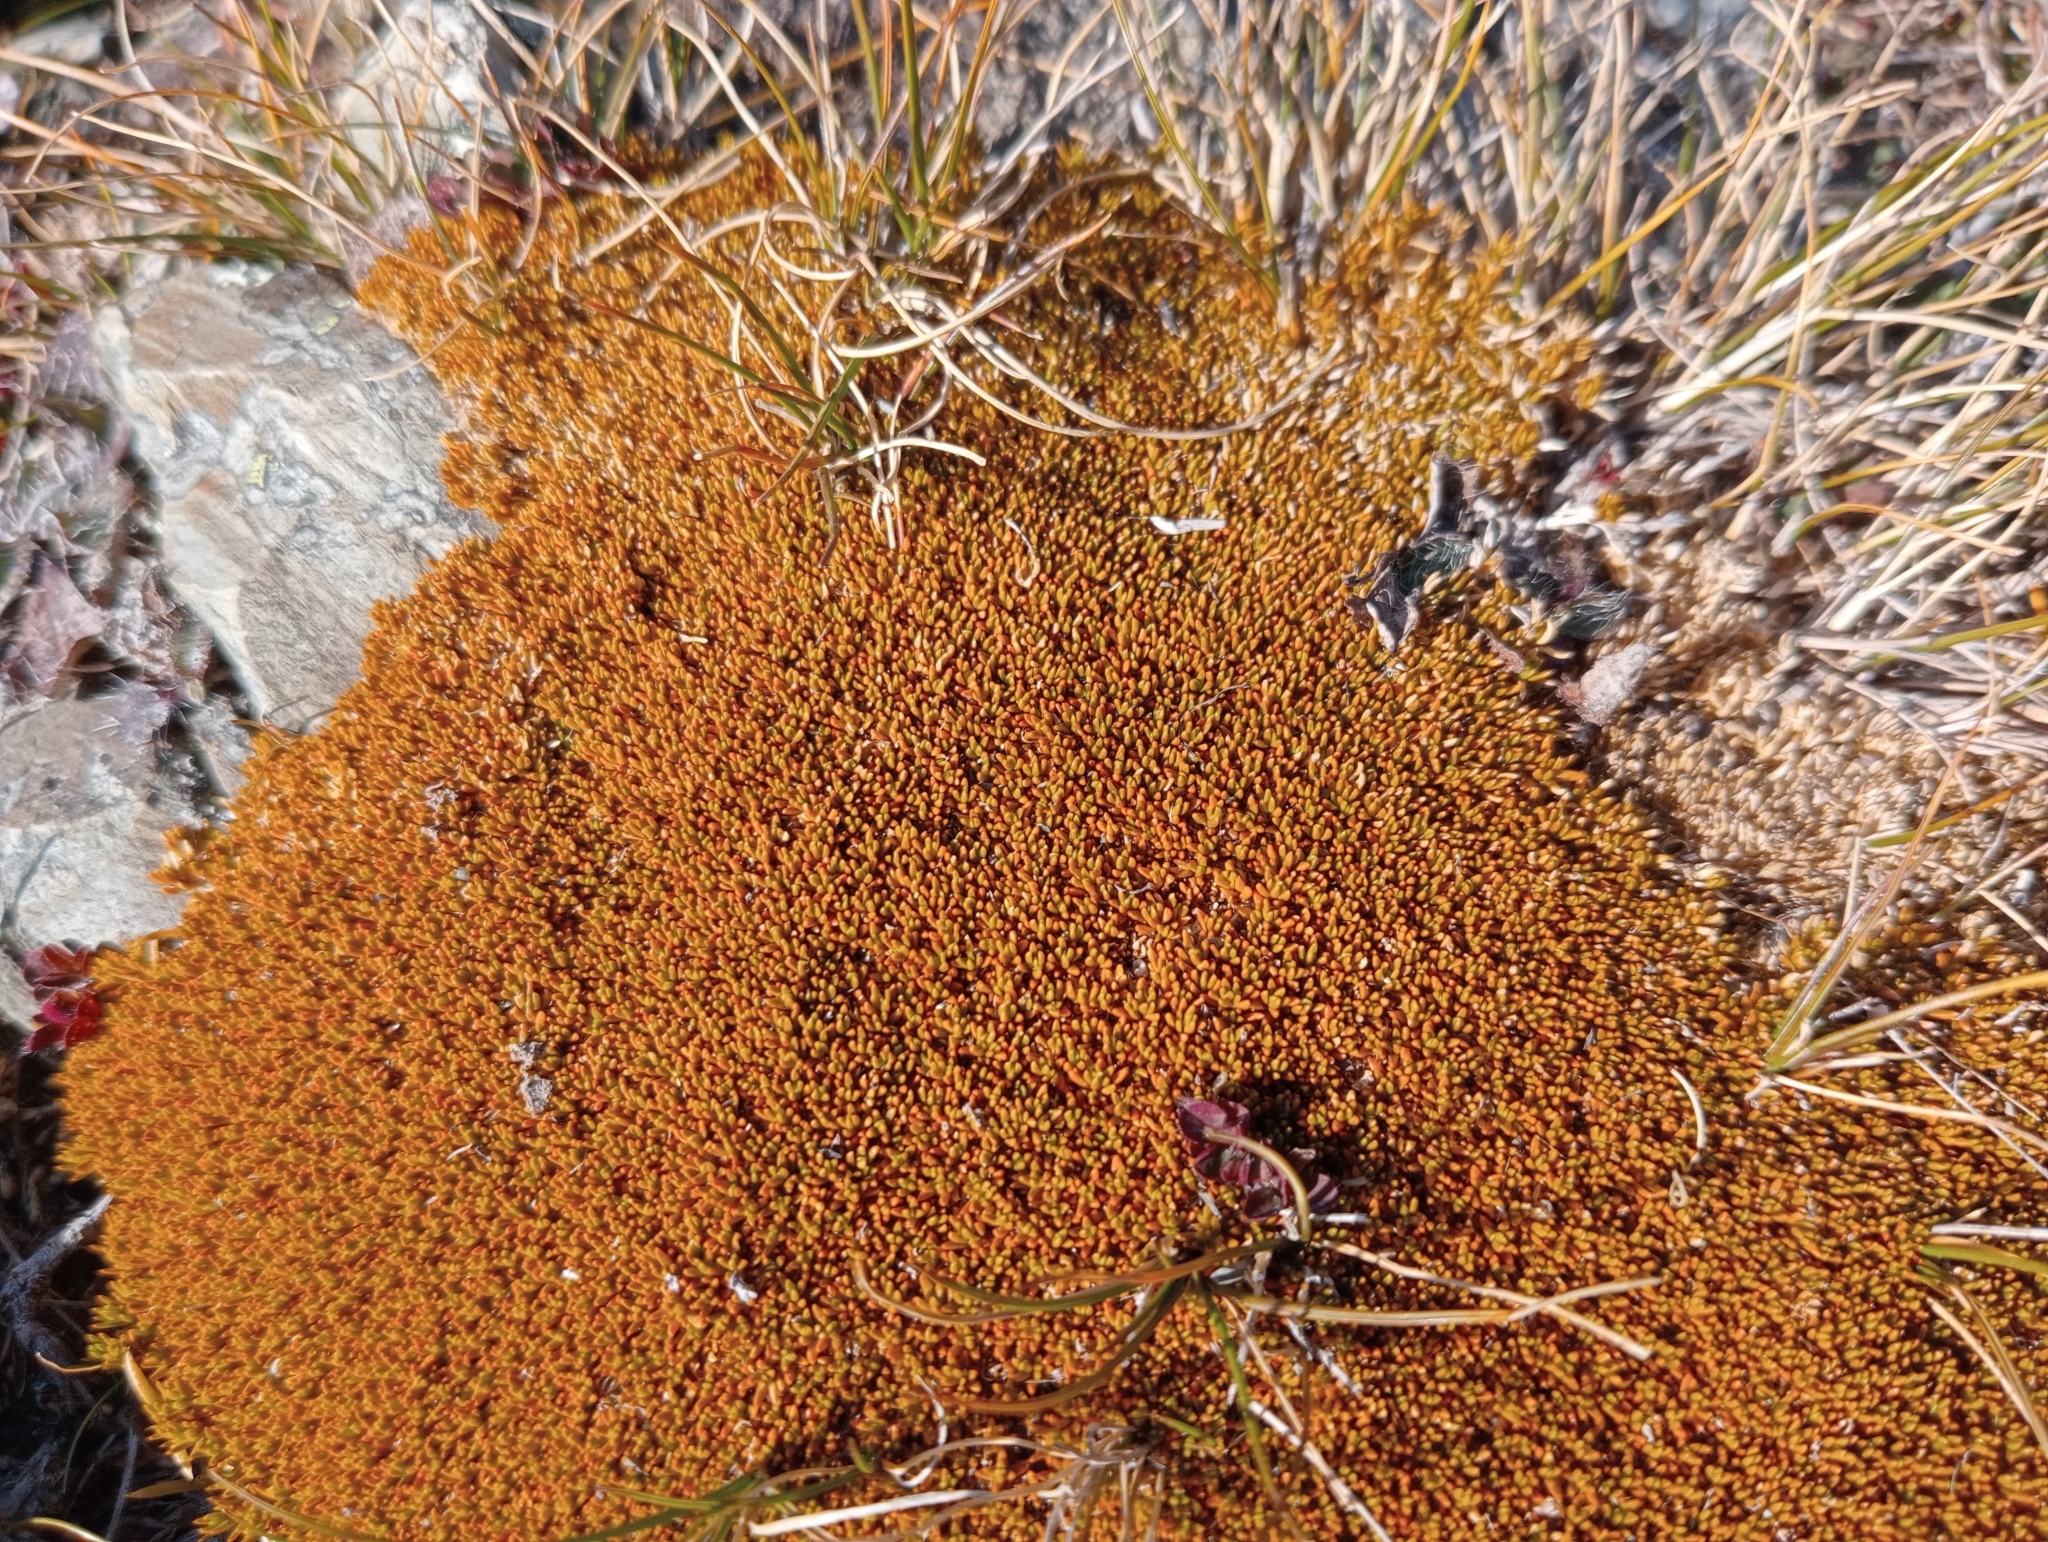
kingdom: Plantae
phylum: Tracheophyta
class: Magnoliopsida
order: Caryophyllales
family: Caryophyllaceae
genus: Scleranthus
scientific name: Scleranthus uniflorus
